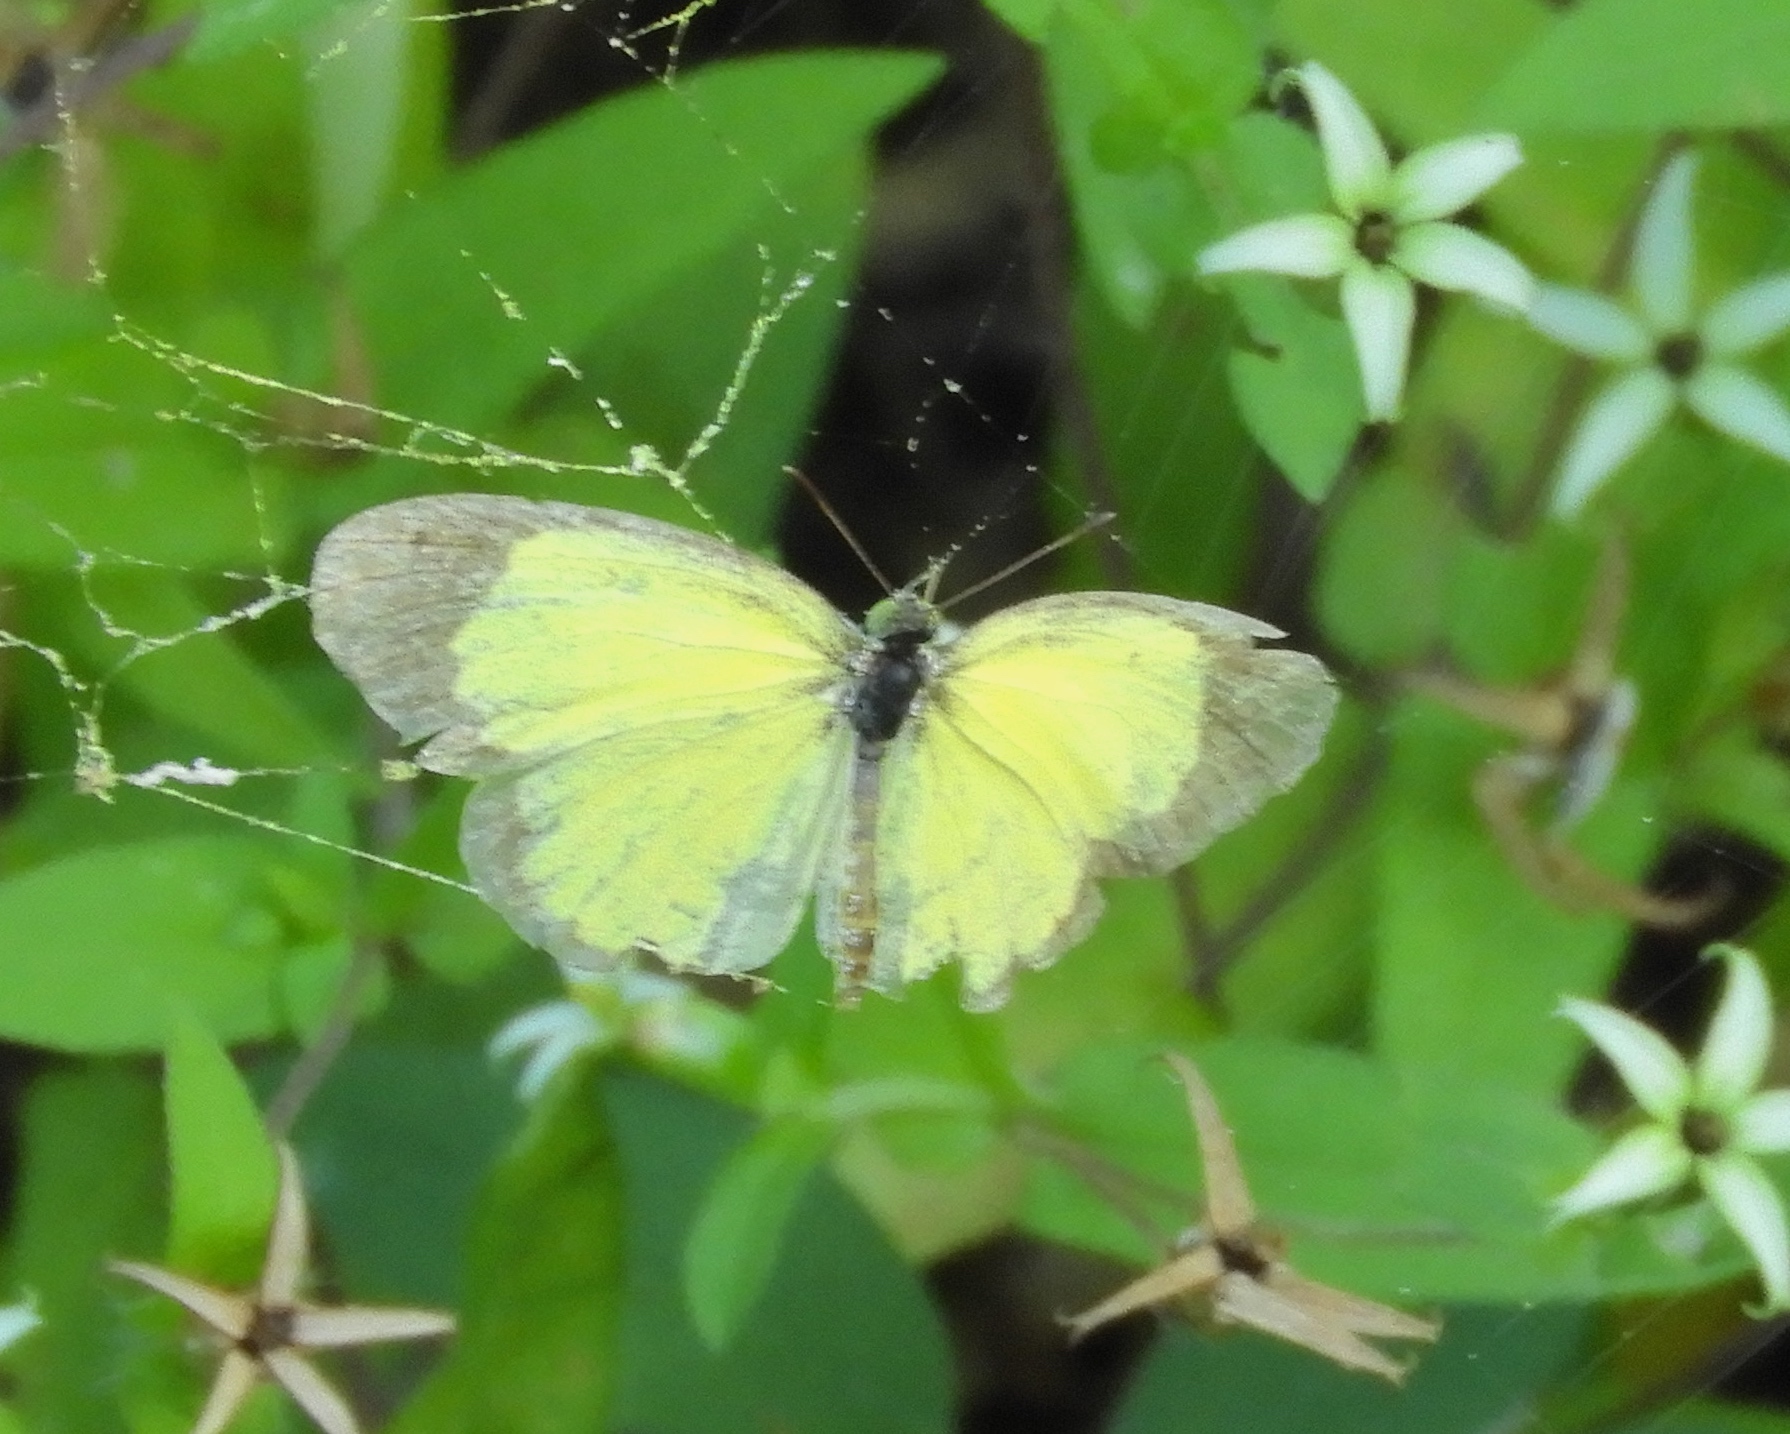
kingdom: Animalia
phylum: Arthropoda
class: Insecta
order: Lepidoptera
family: Pieridae
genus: Pyrisitia
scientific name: Pyrisitia lisa
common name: Little yellow
